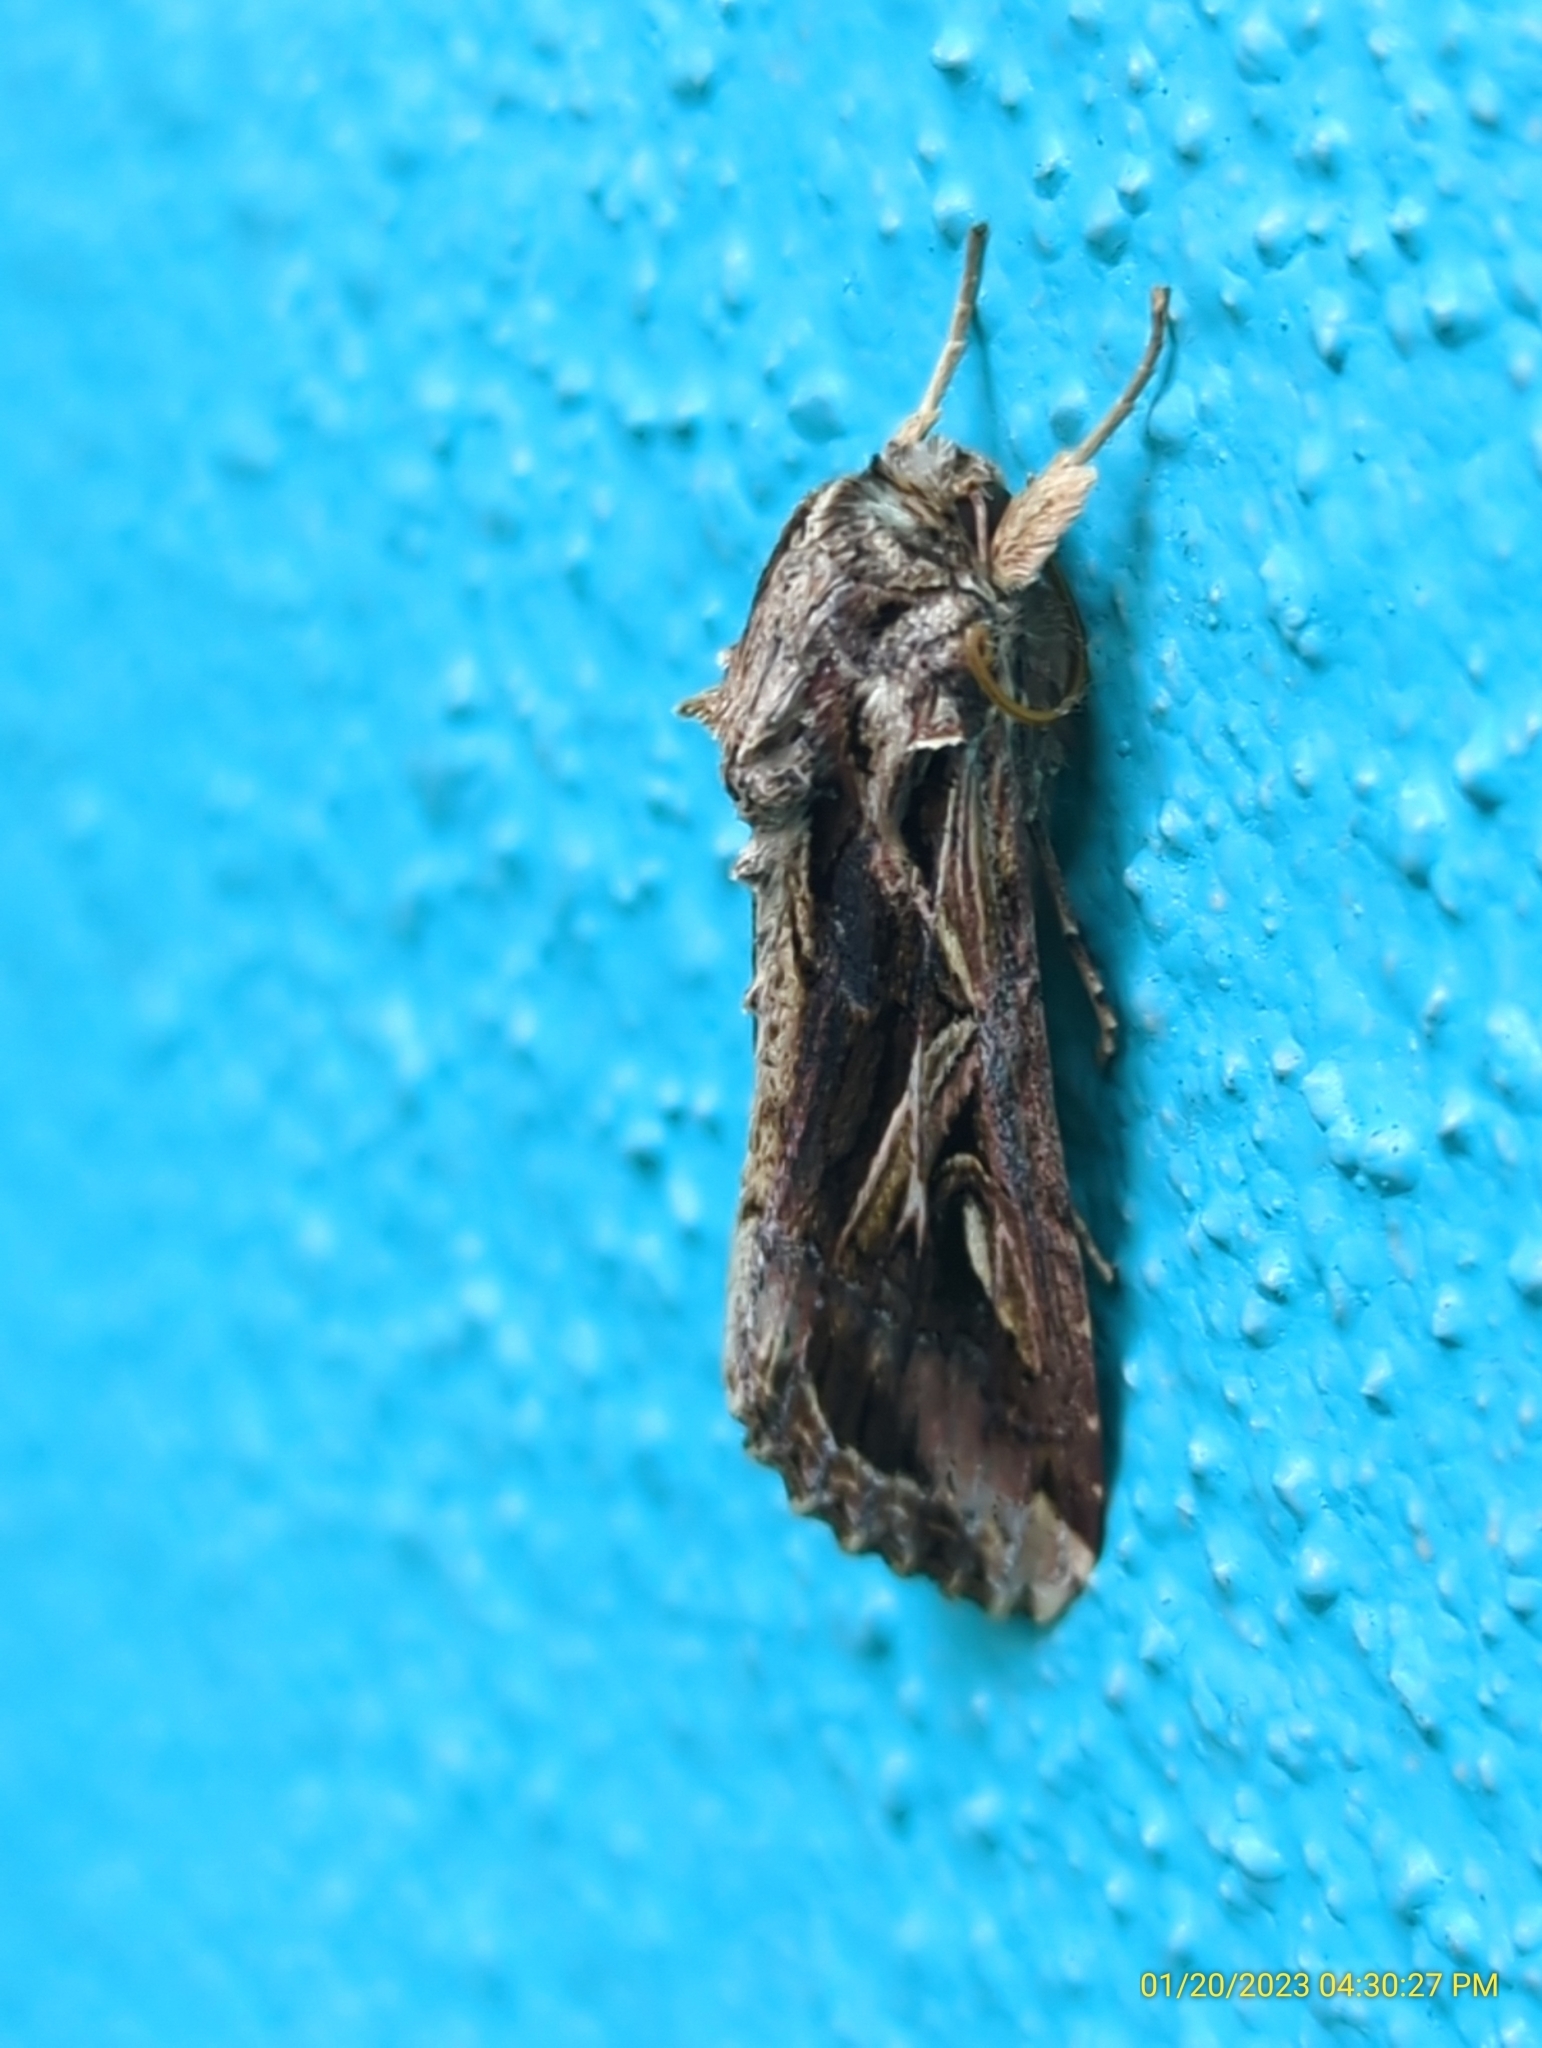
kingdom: Animalia
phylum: Arthropoda
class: Insecta
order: Lepidoptera
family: Noctuidae
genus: Spodoptera
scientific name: Spodoptera dolichos
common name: Sweetpotato armyworm
